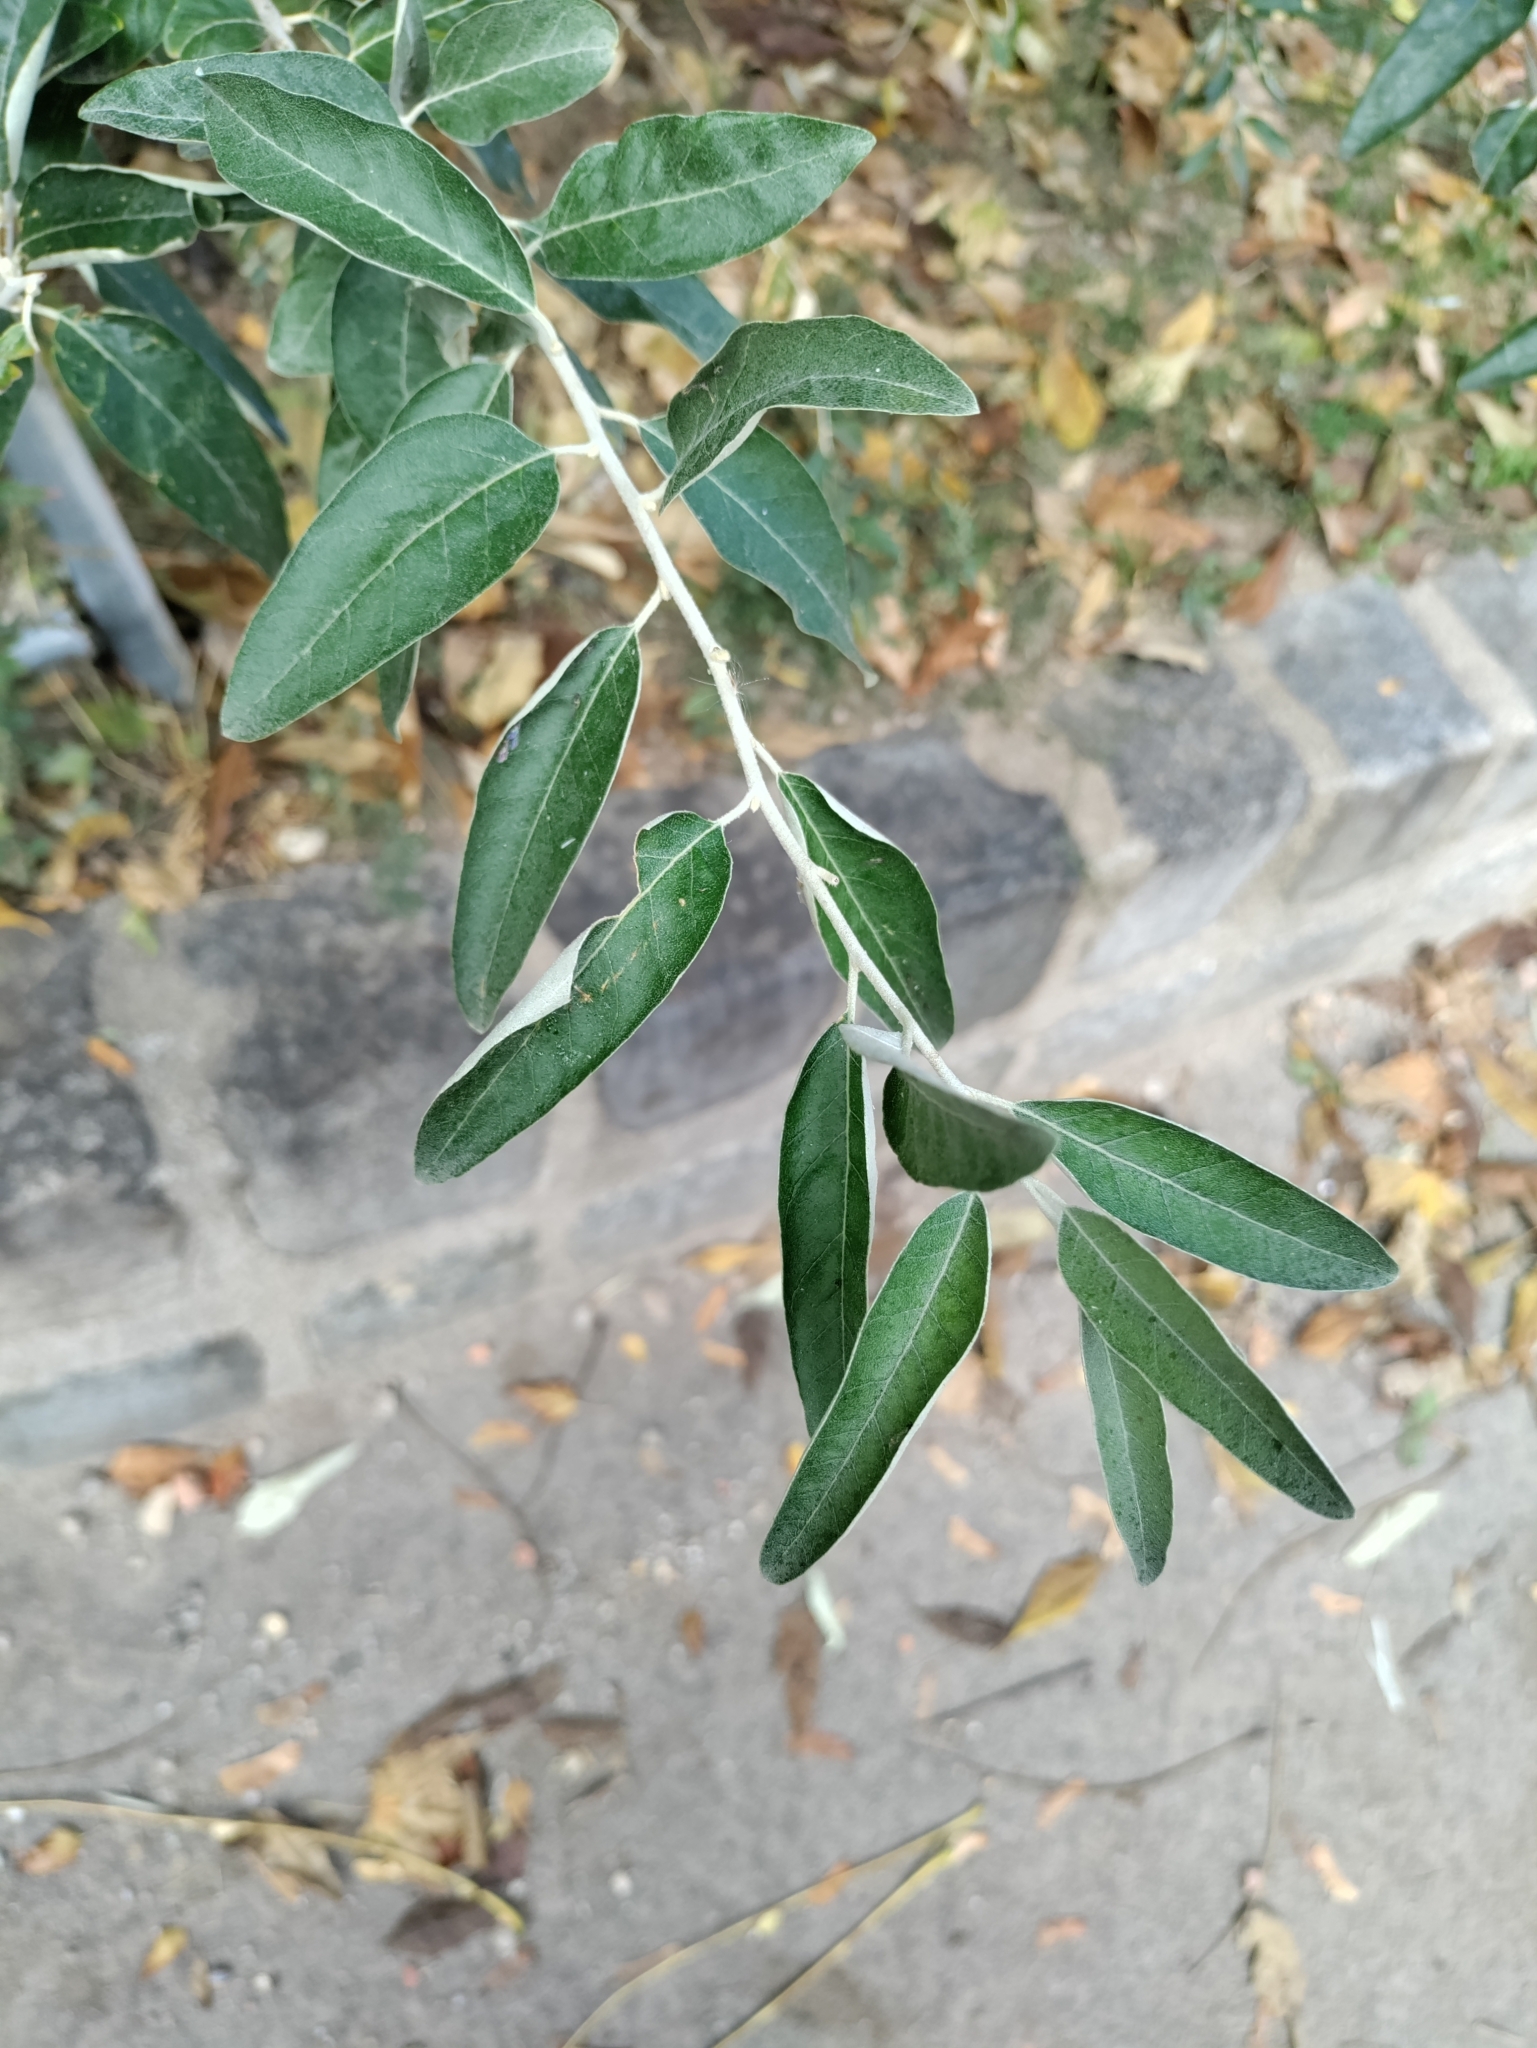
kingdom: Plantae
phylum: Tracheophyta
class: Magnoliopsida
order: Rosales
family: Elaeagnaceae
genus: Elaeagnus
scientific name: Elaeagnus angustifolia
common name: Russian olive
